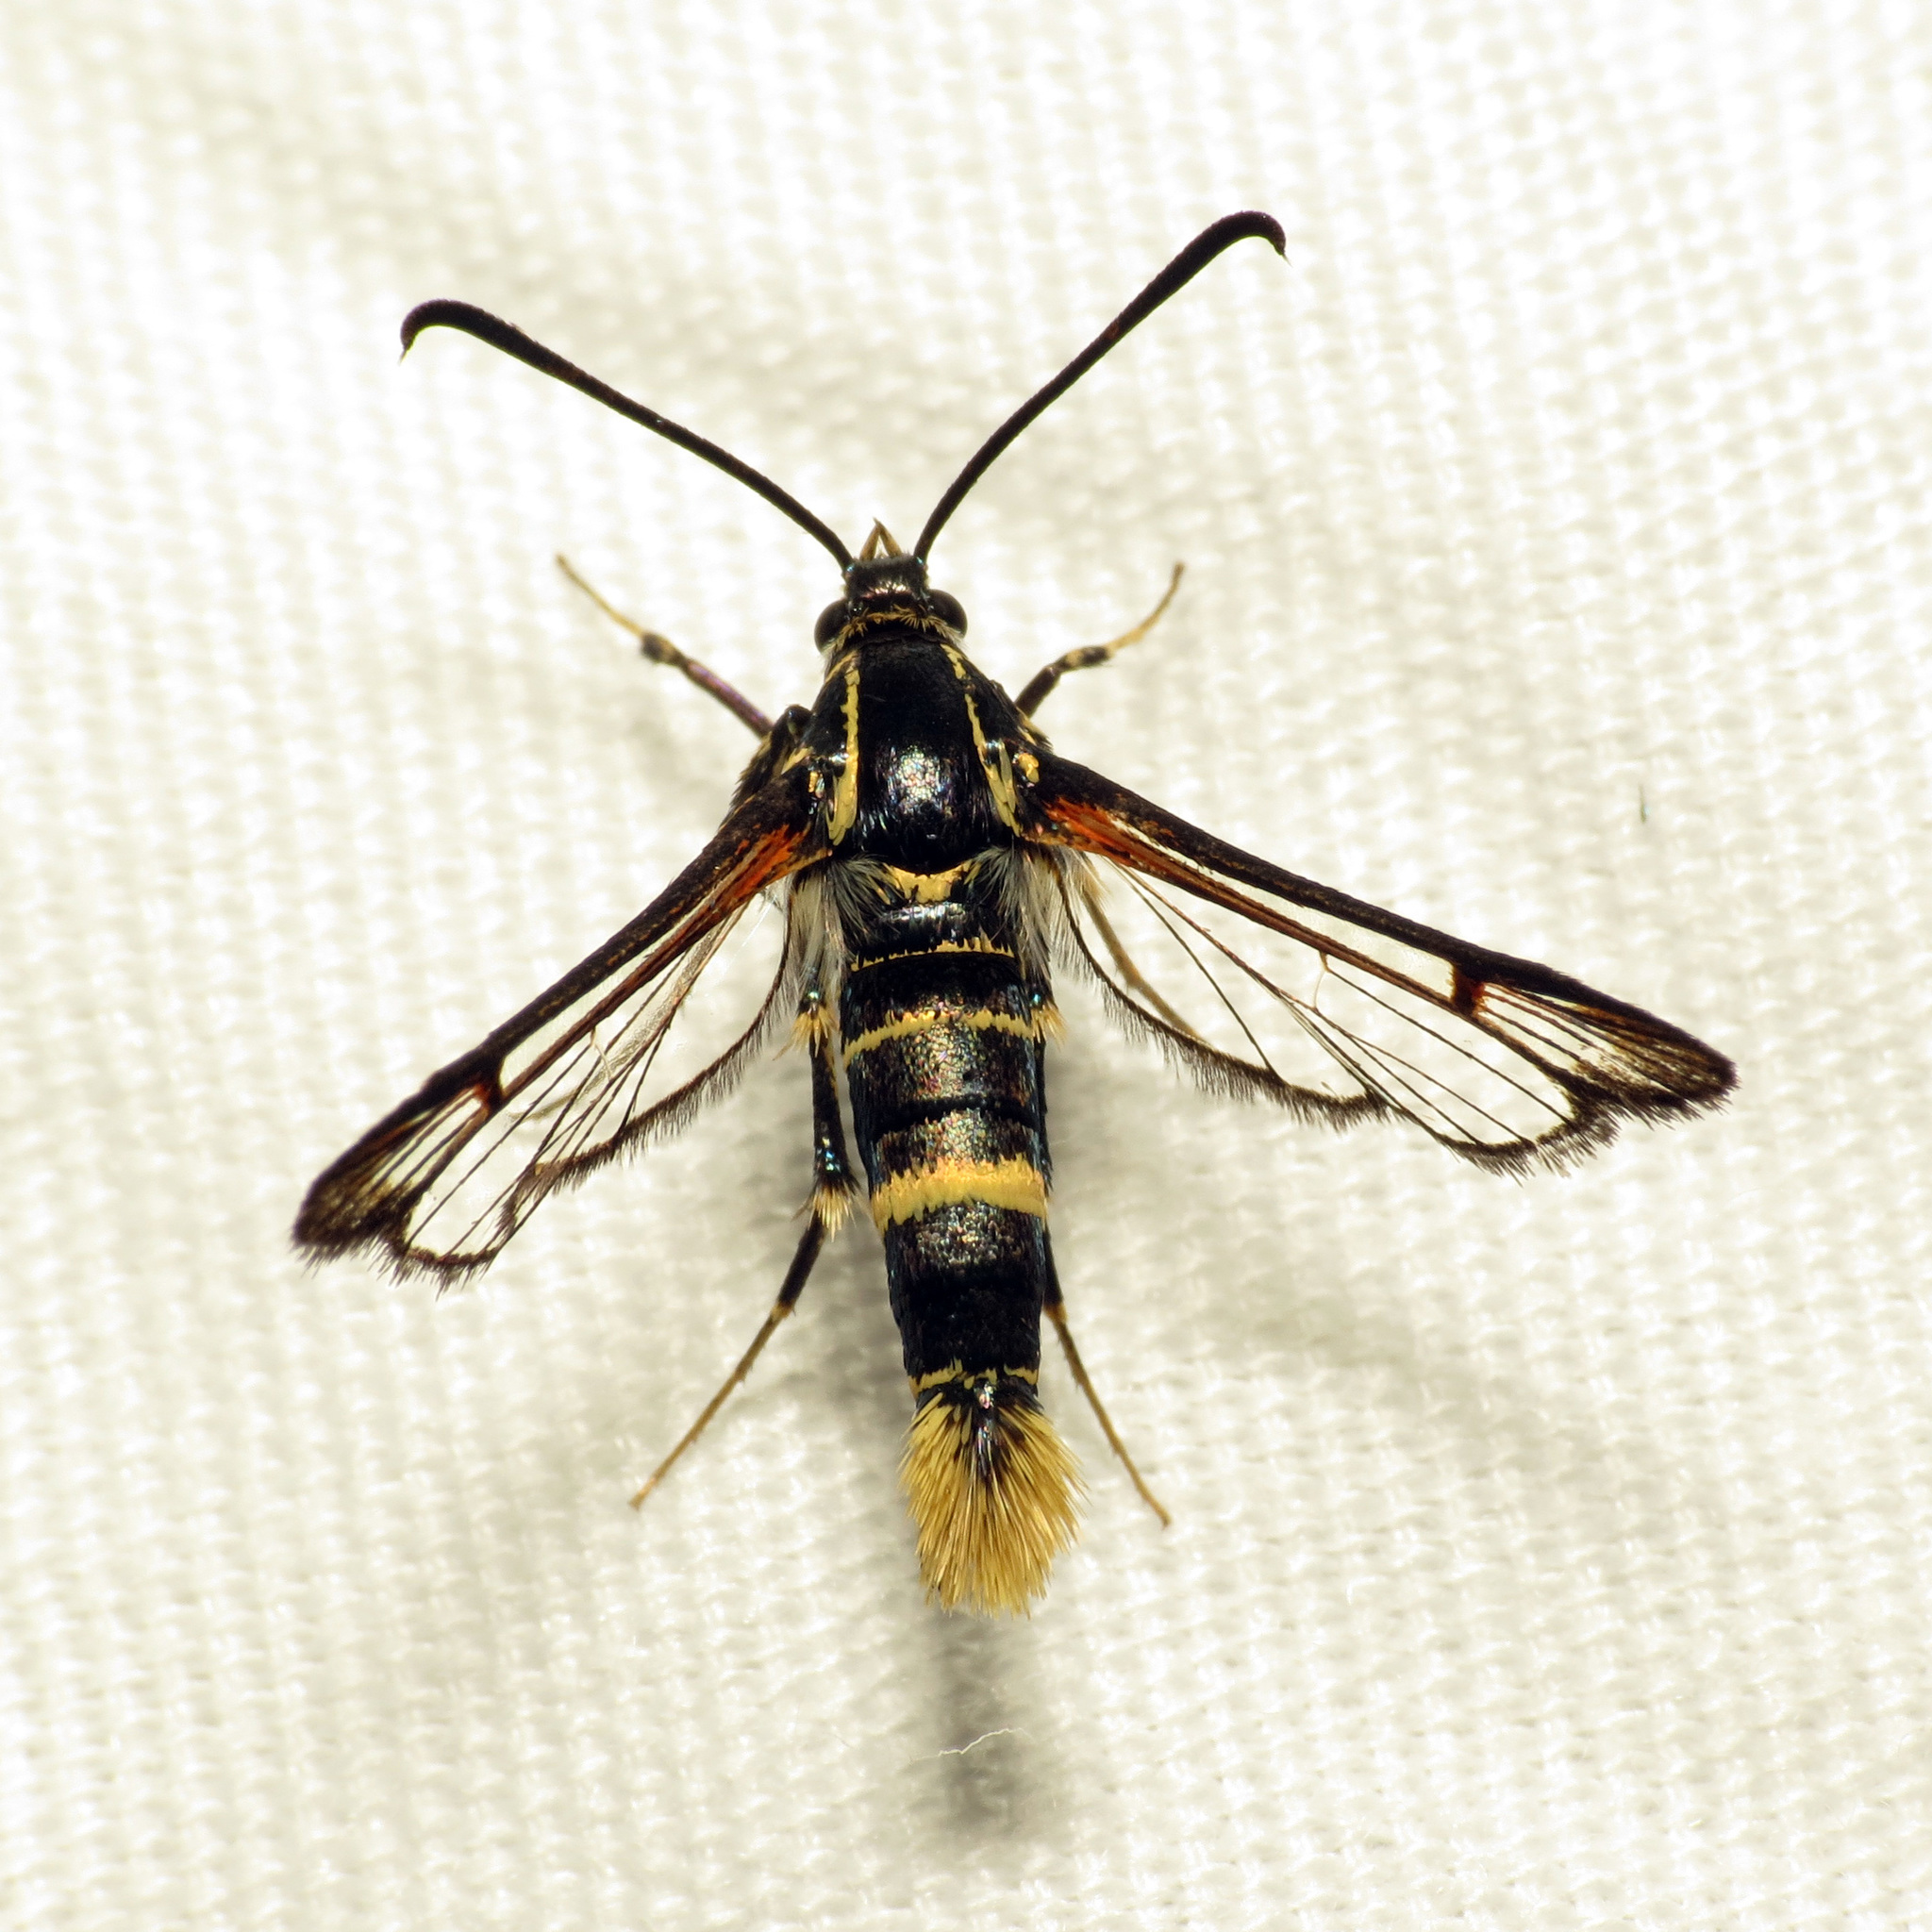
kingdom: Animalia
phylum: Arthropoda
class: Insecta
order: Lepidoptera
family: Sesiidae
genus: Carmenta
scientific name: Carmenta arizonae
